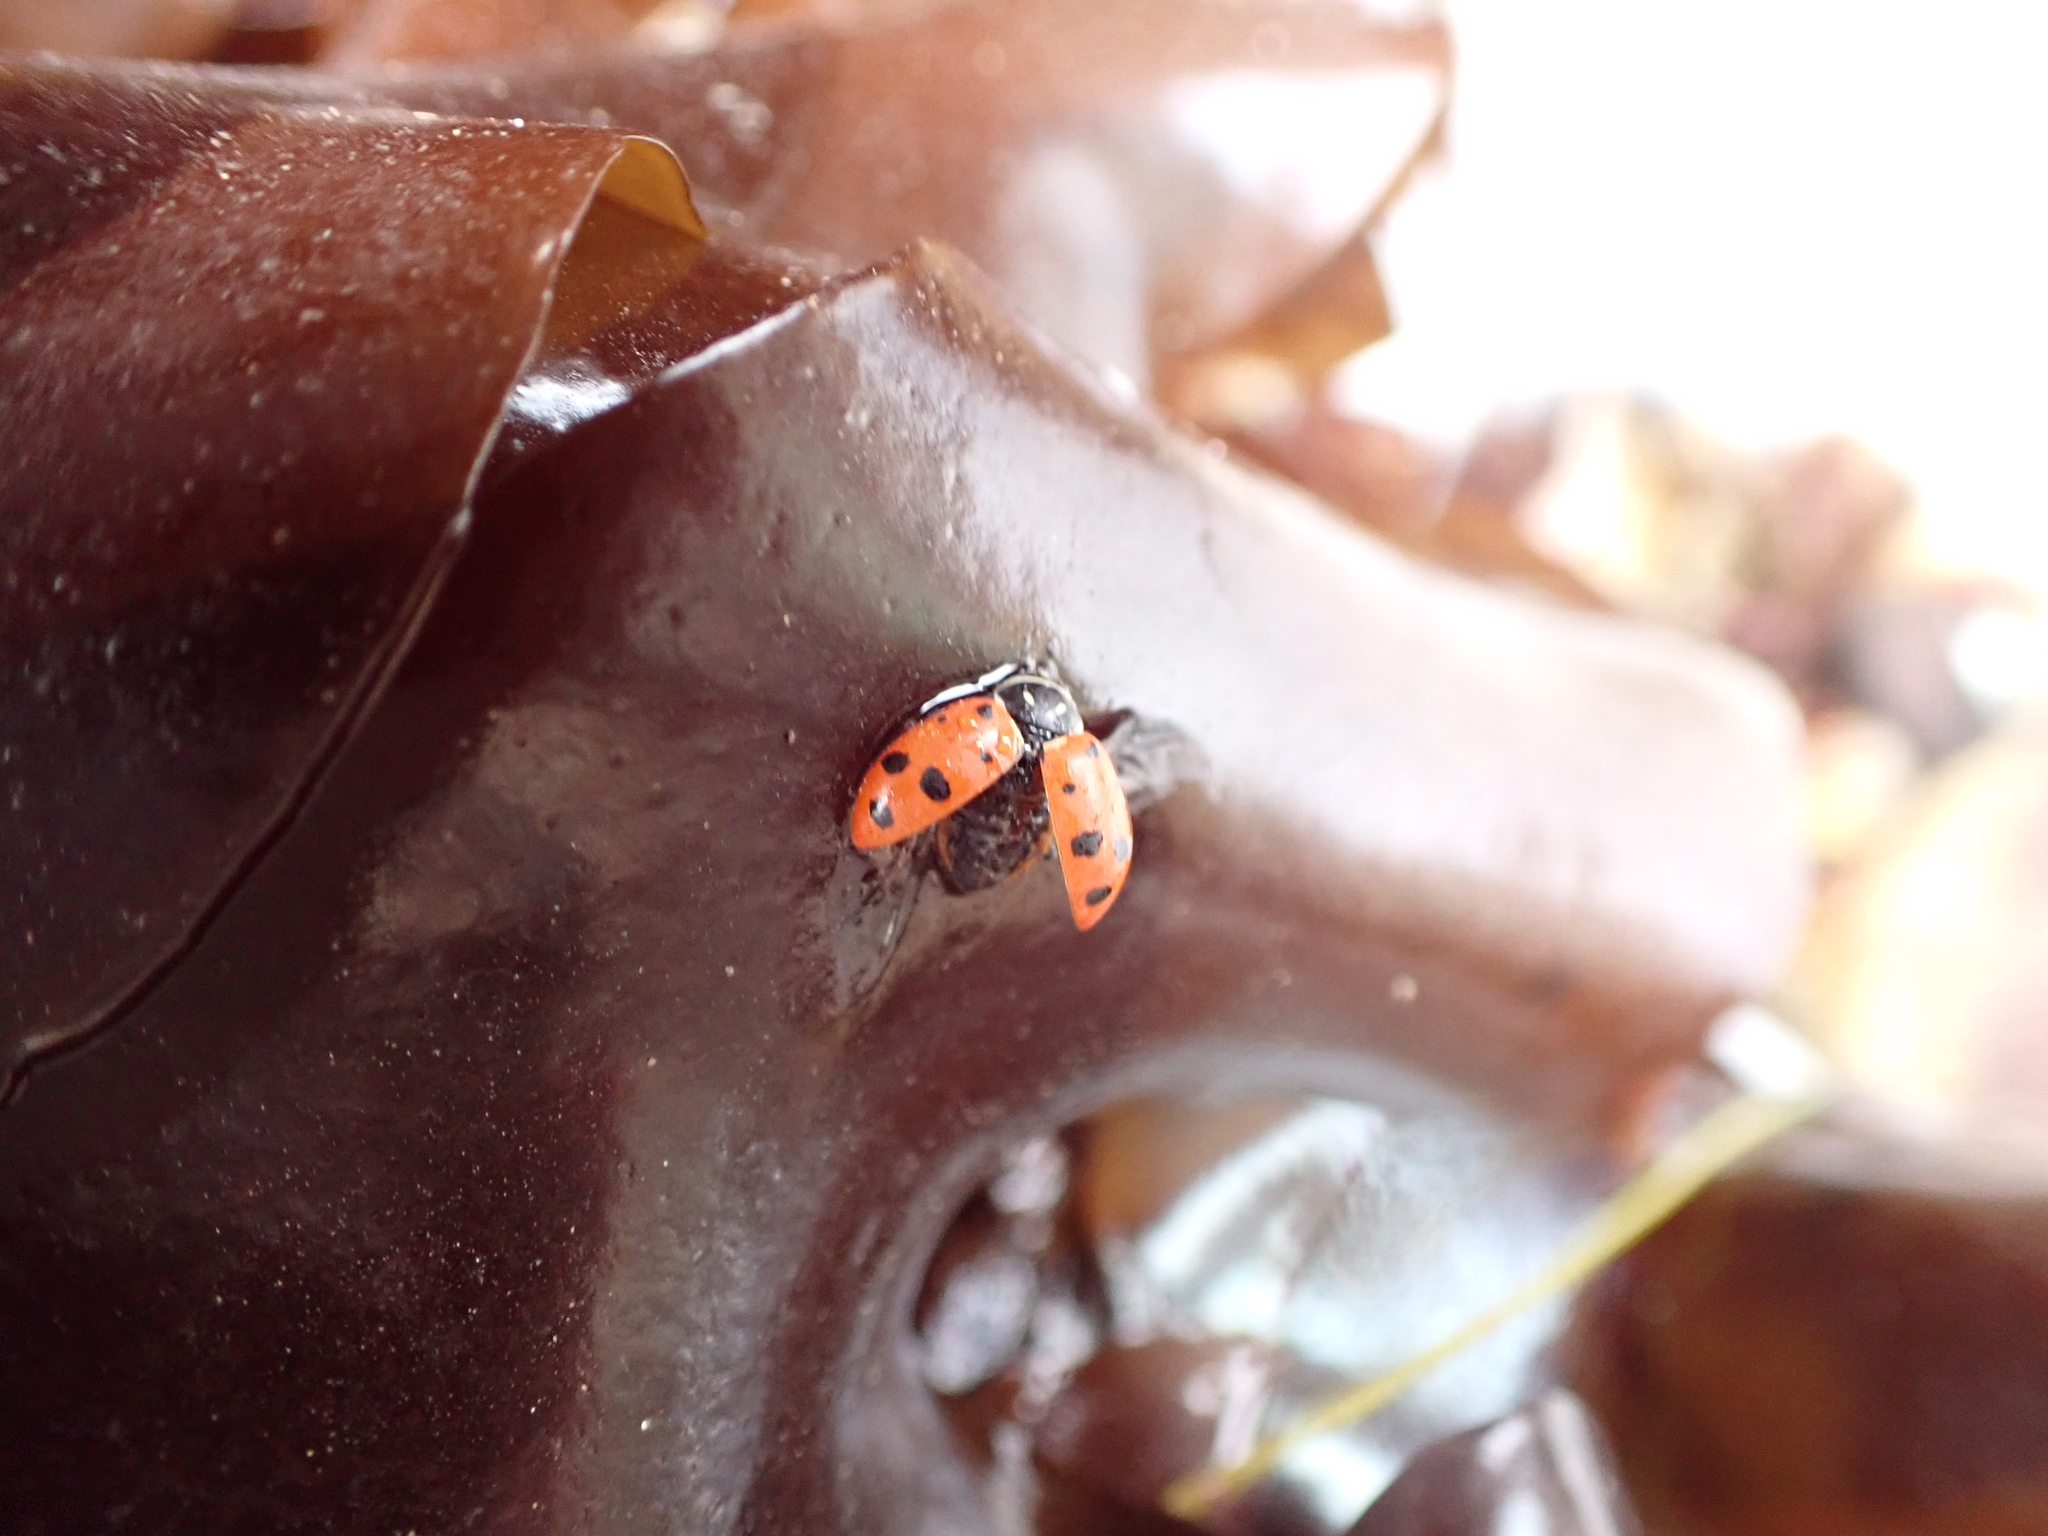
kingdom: Animalia
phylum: Arthropoda
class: Insecta
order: Coleoptera
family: Coccinellidae
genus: Hippodamia
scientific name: Hippodamia convergens
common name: Convergent lady beetle
